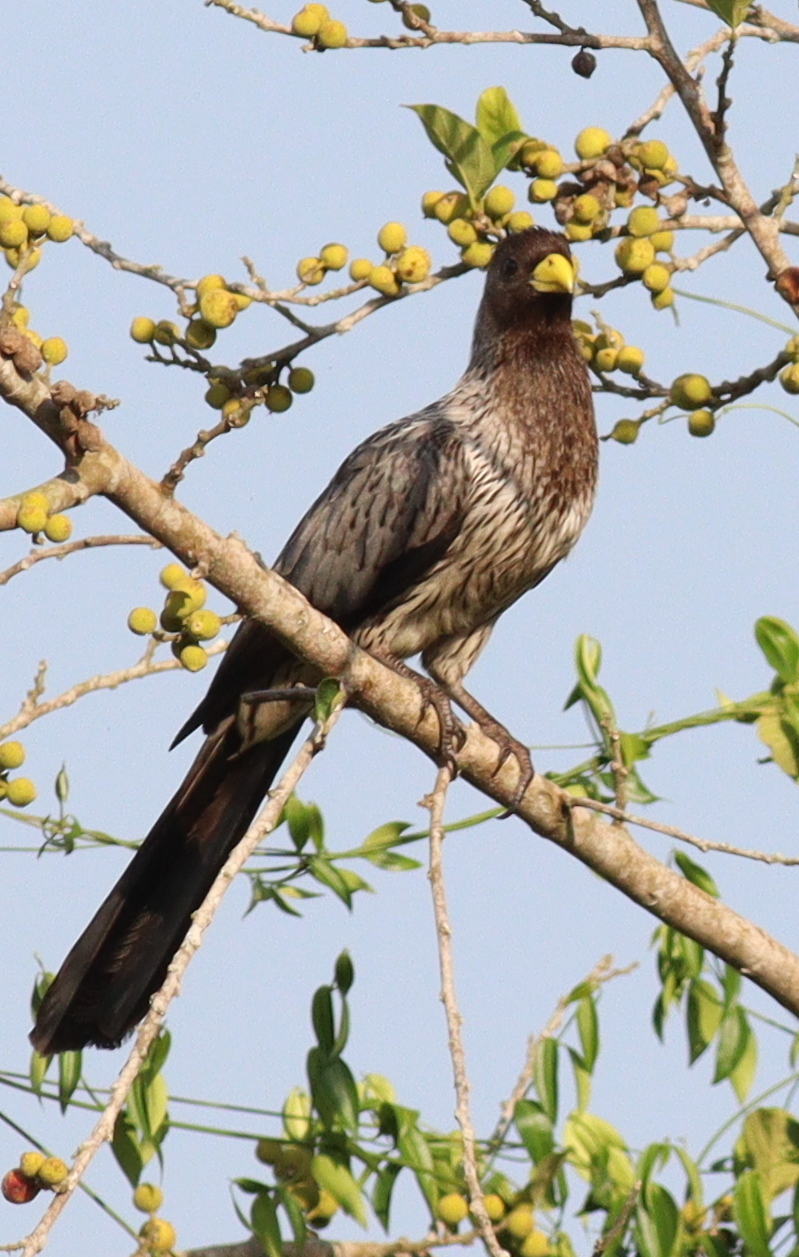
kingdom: Animalia
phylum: Chordata
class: Aves
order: Musophagiformes
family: Musophagidae
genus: Crinifer
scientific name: Crinifer piscator
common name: Western plantain-eater
